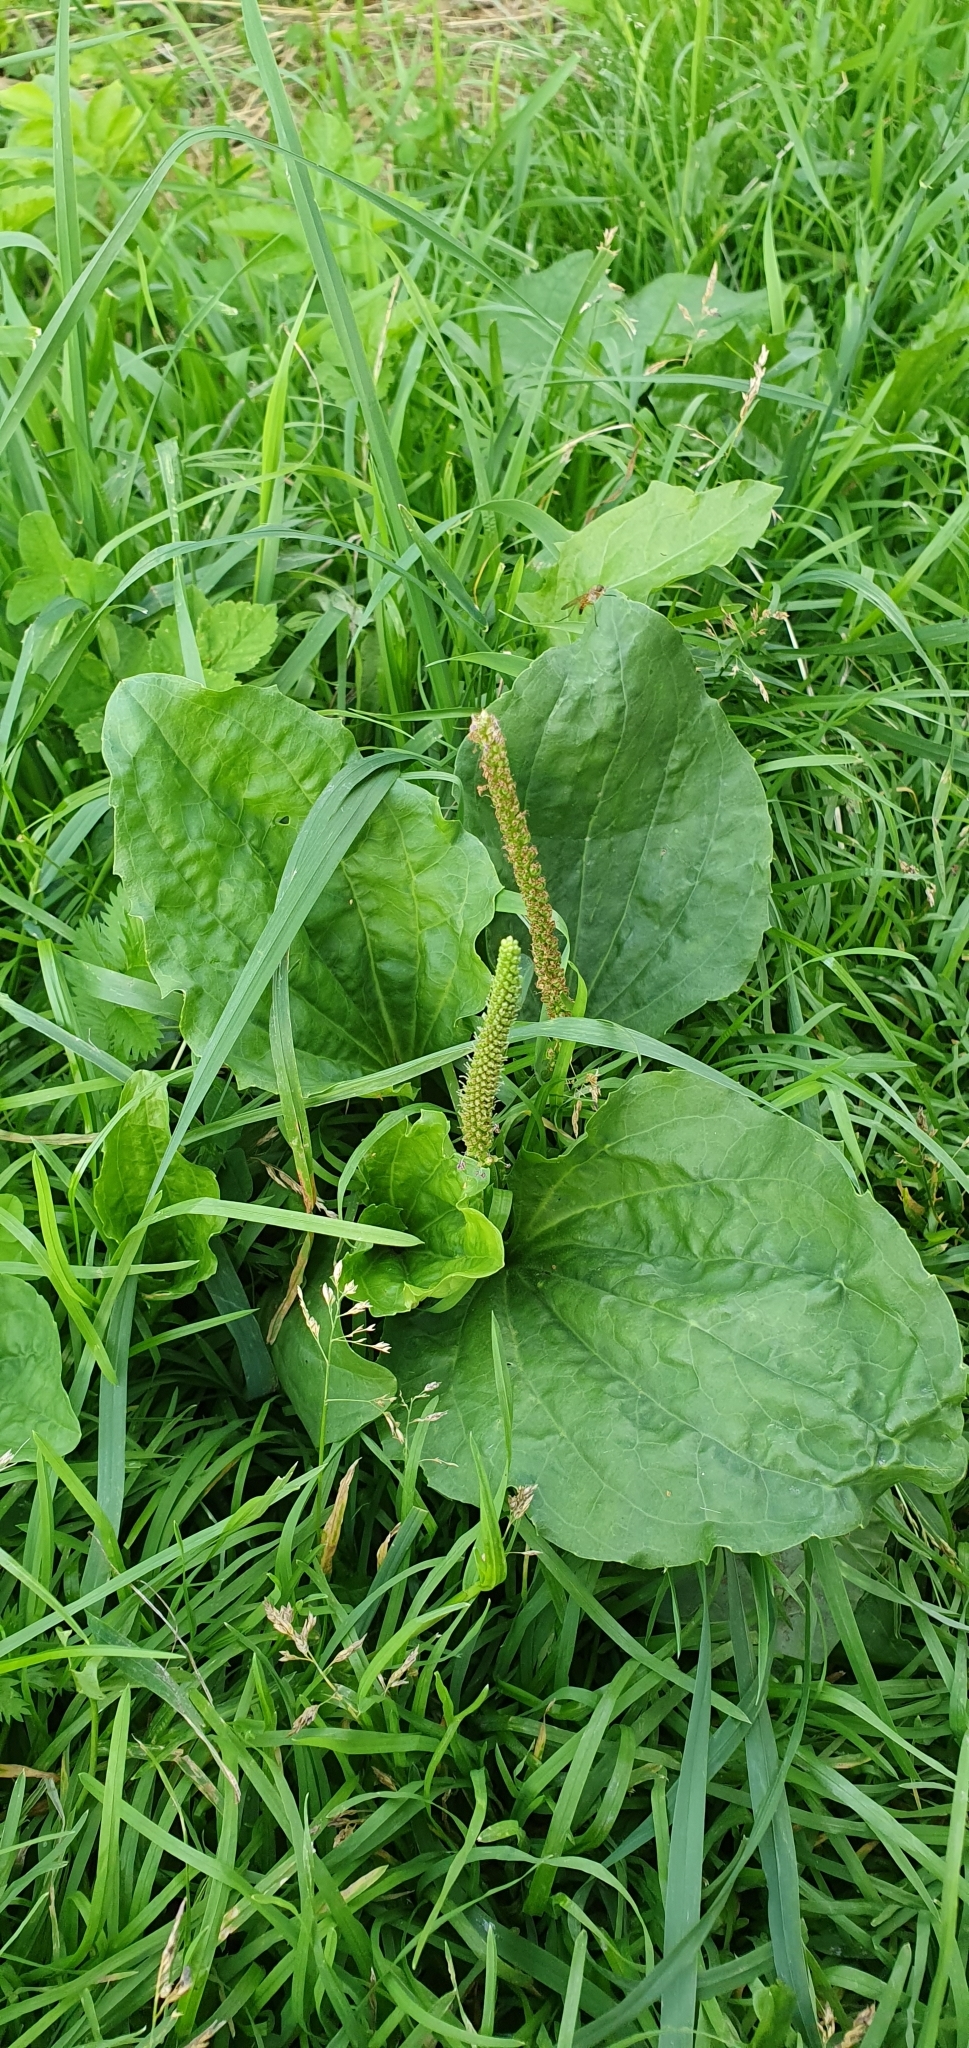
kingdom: Plantae
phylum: Tracheophyta
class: Magnoliopsida
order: Lamiales
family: Plantaginaceae
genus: Plantago
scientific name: Plantago major
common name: Common plantain
